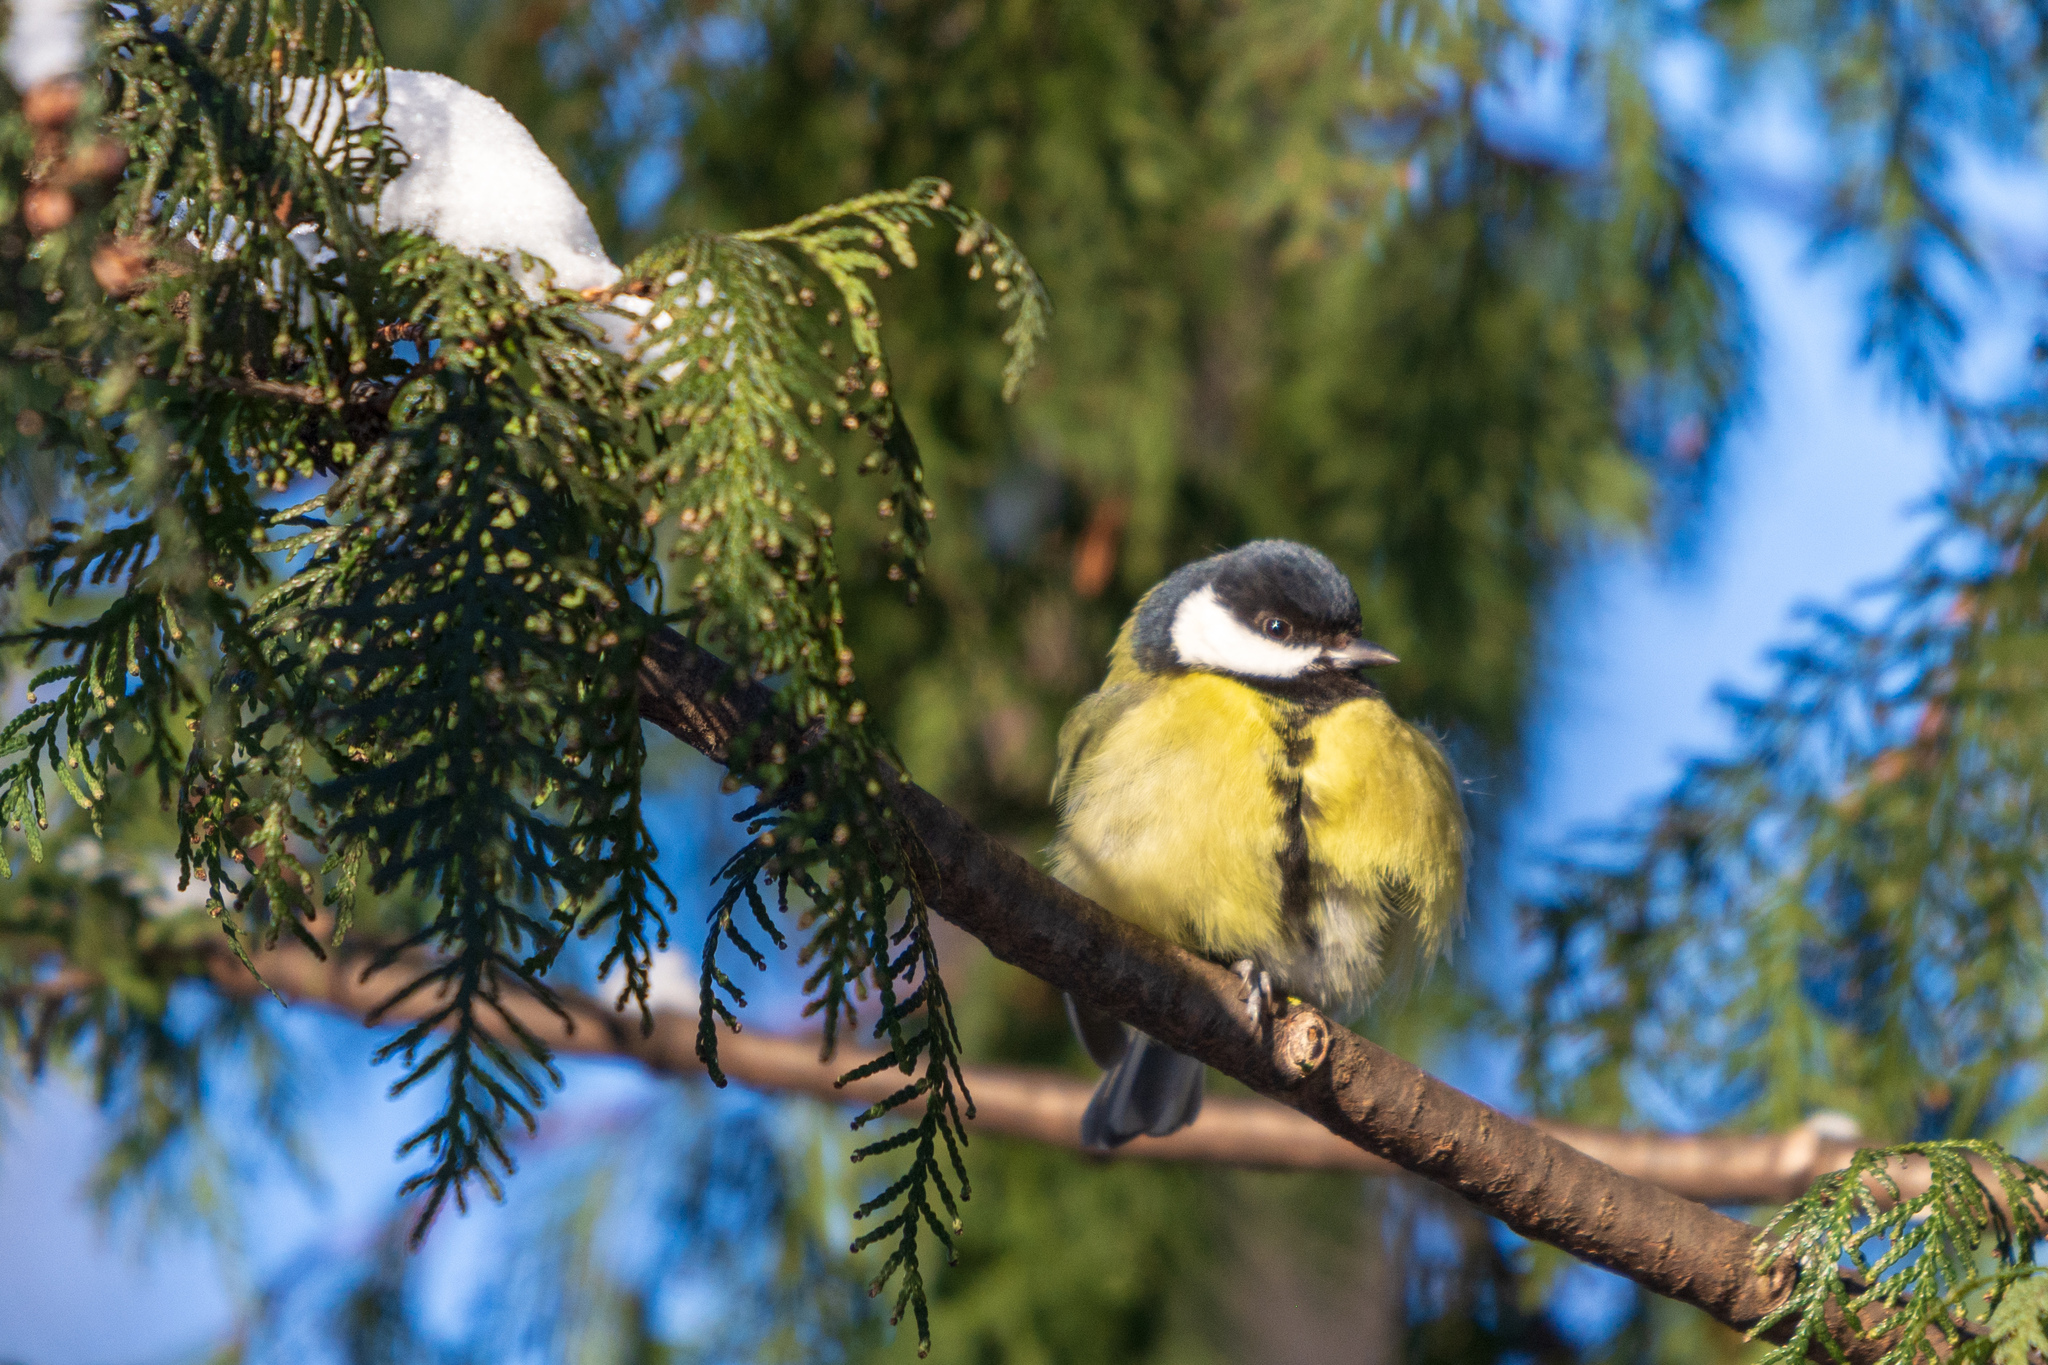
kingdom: Animalia
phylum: Chordata
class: Aves
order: Passeriformes
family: Paridae
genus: Parus
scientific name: Parus major
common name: Great tit
